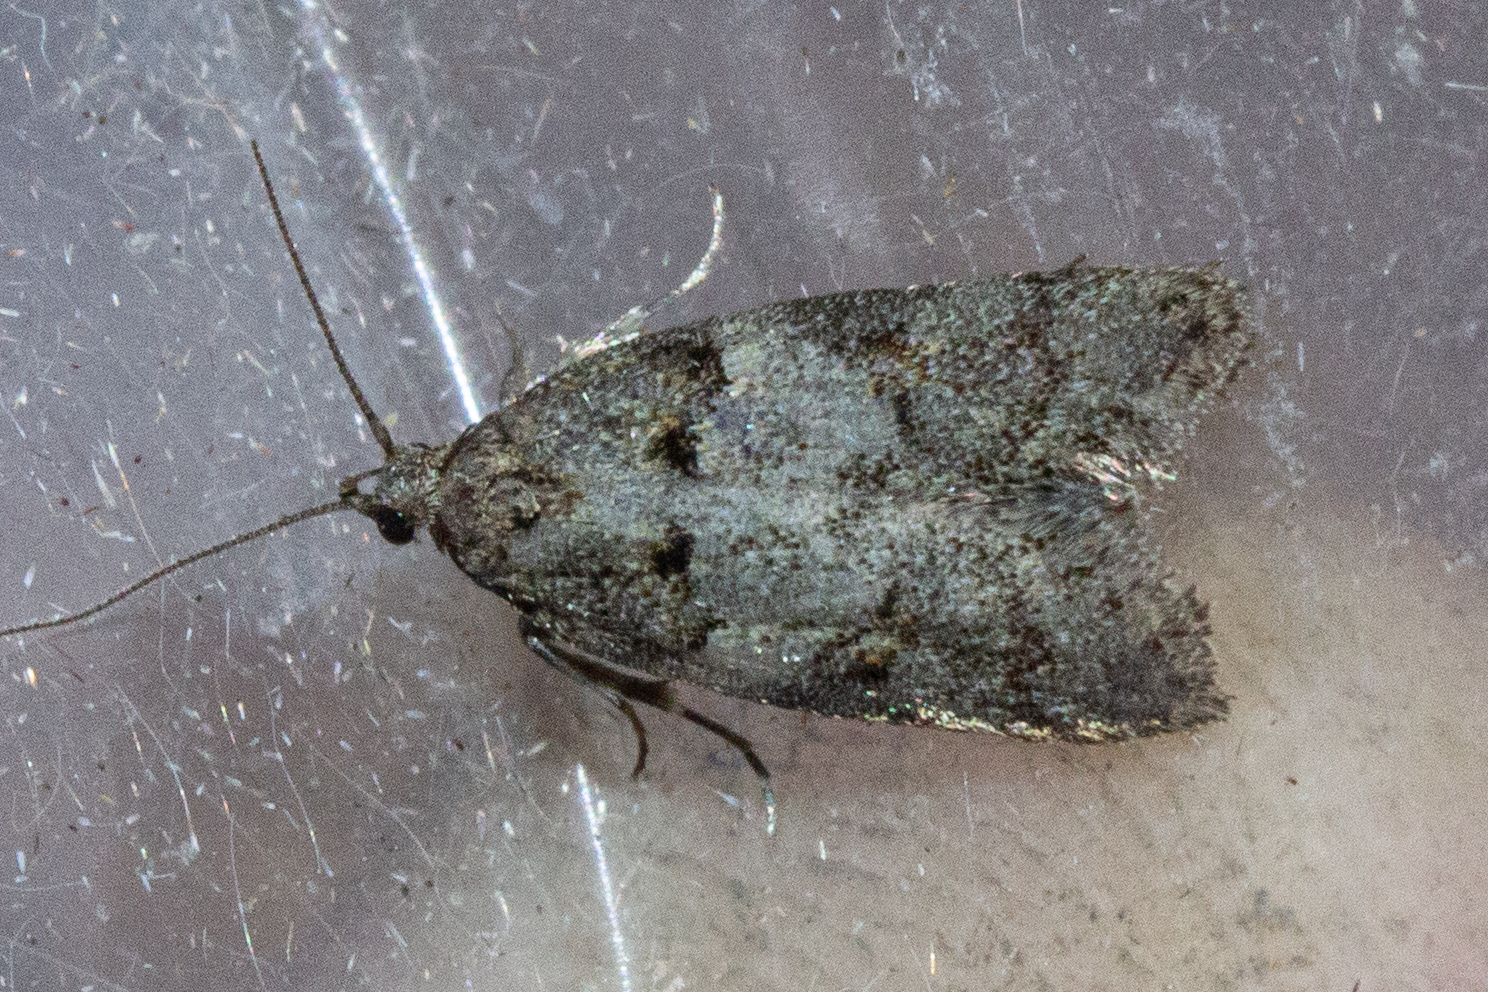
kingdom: Animalia
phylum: Arthropoda
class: Insecta
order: Lepidoptera
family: Oecophoridae
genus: Trachypepla
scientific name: Trachypepla contritella
